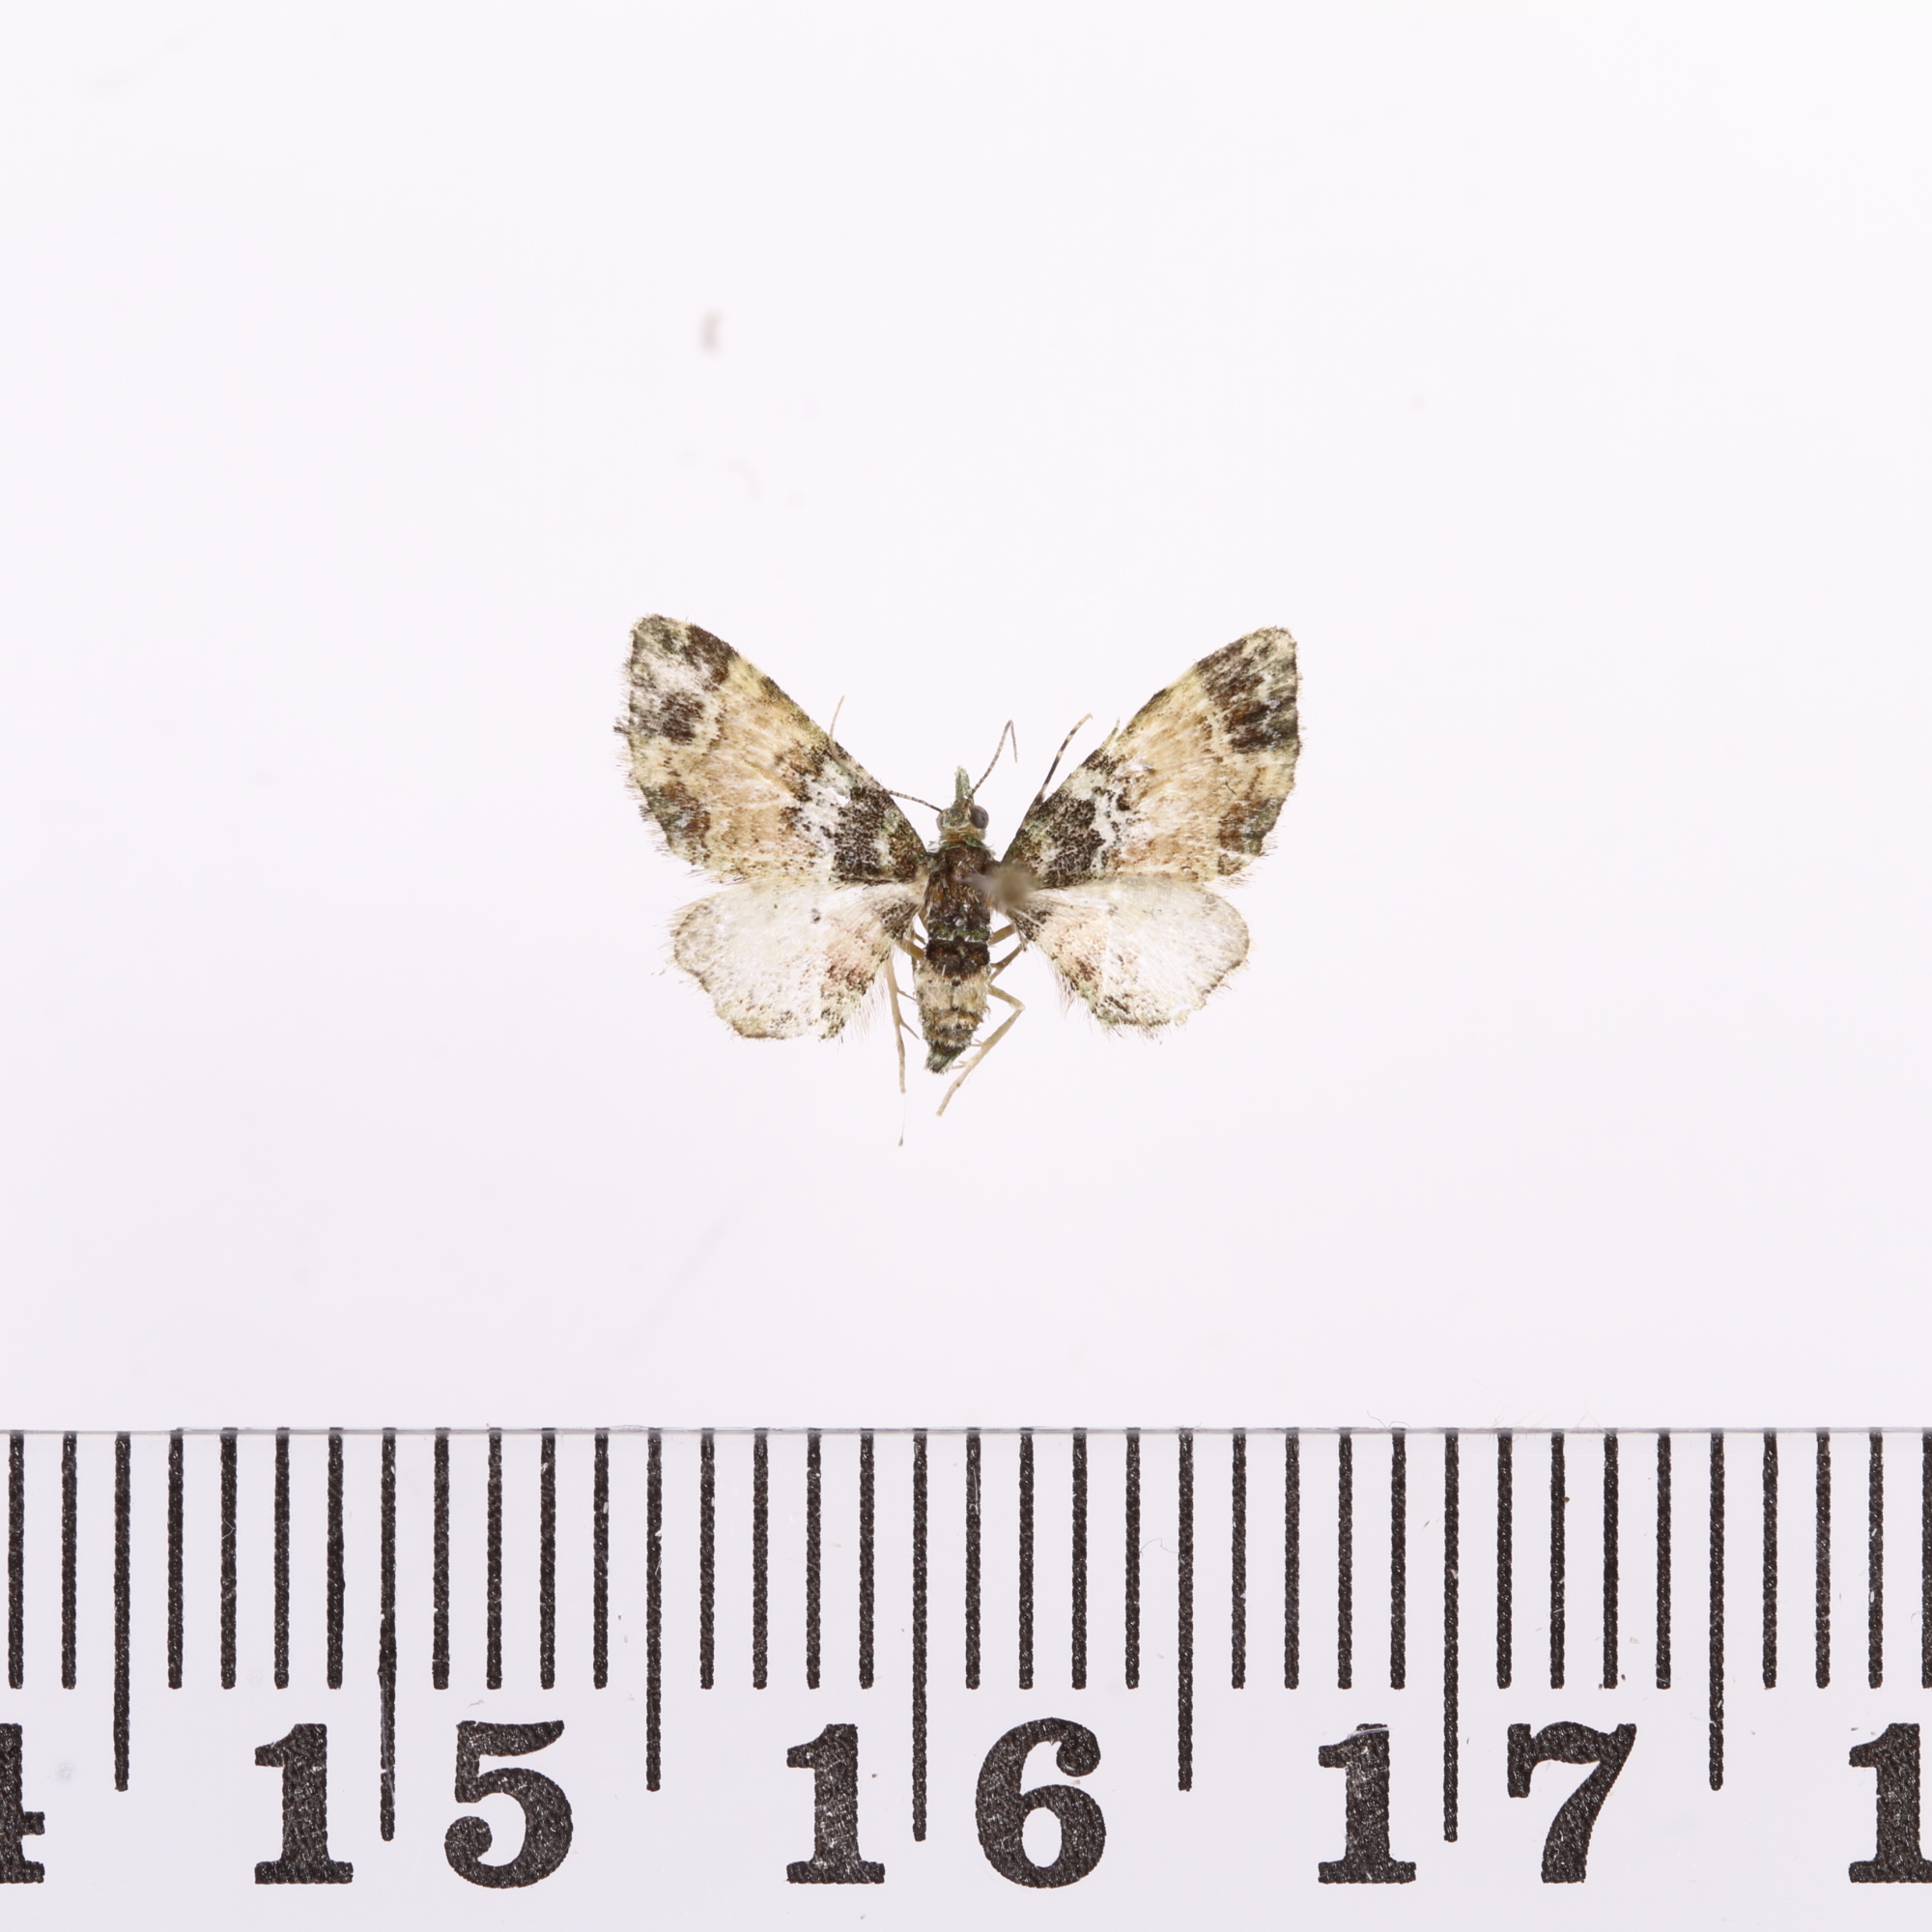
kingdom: Animalia
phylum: Arthropoda
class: Insecta
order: Lepidoptera
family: Geometridae
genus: Pasiphila
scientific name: Pasiphila sandycias
